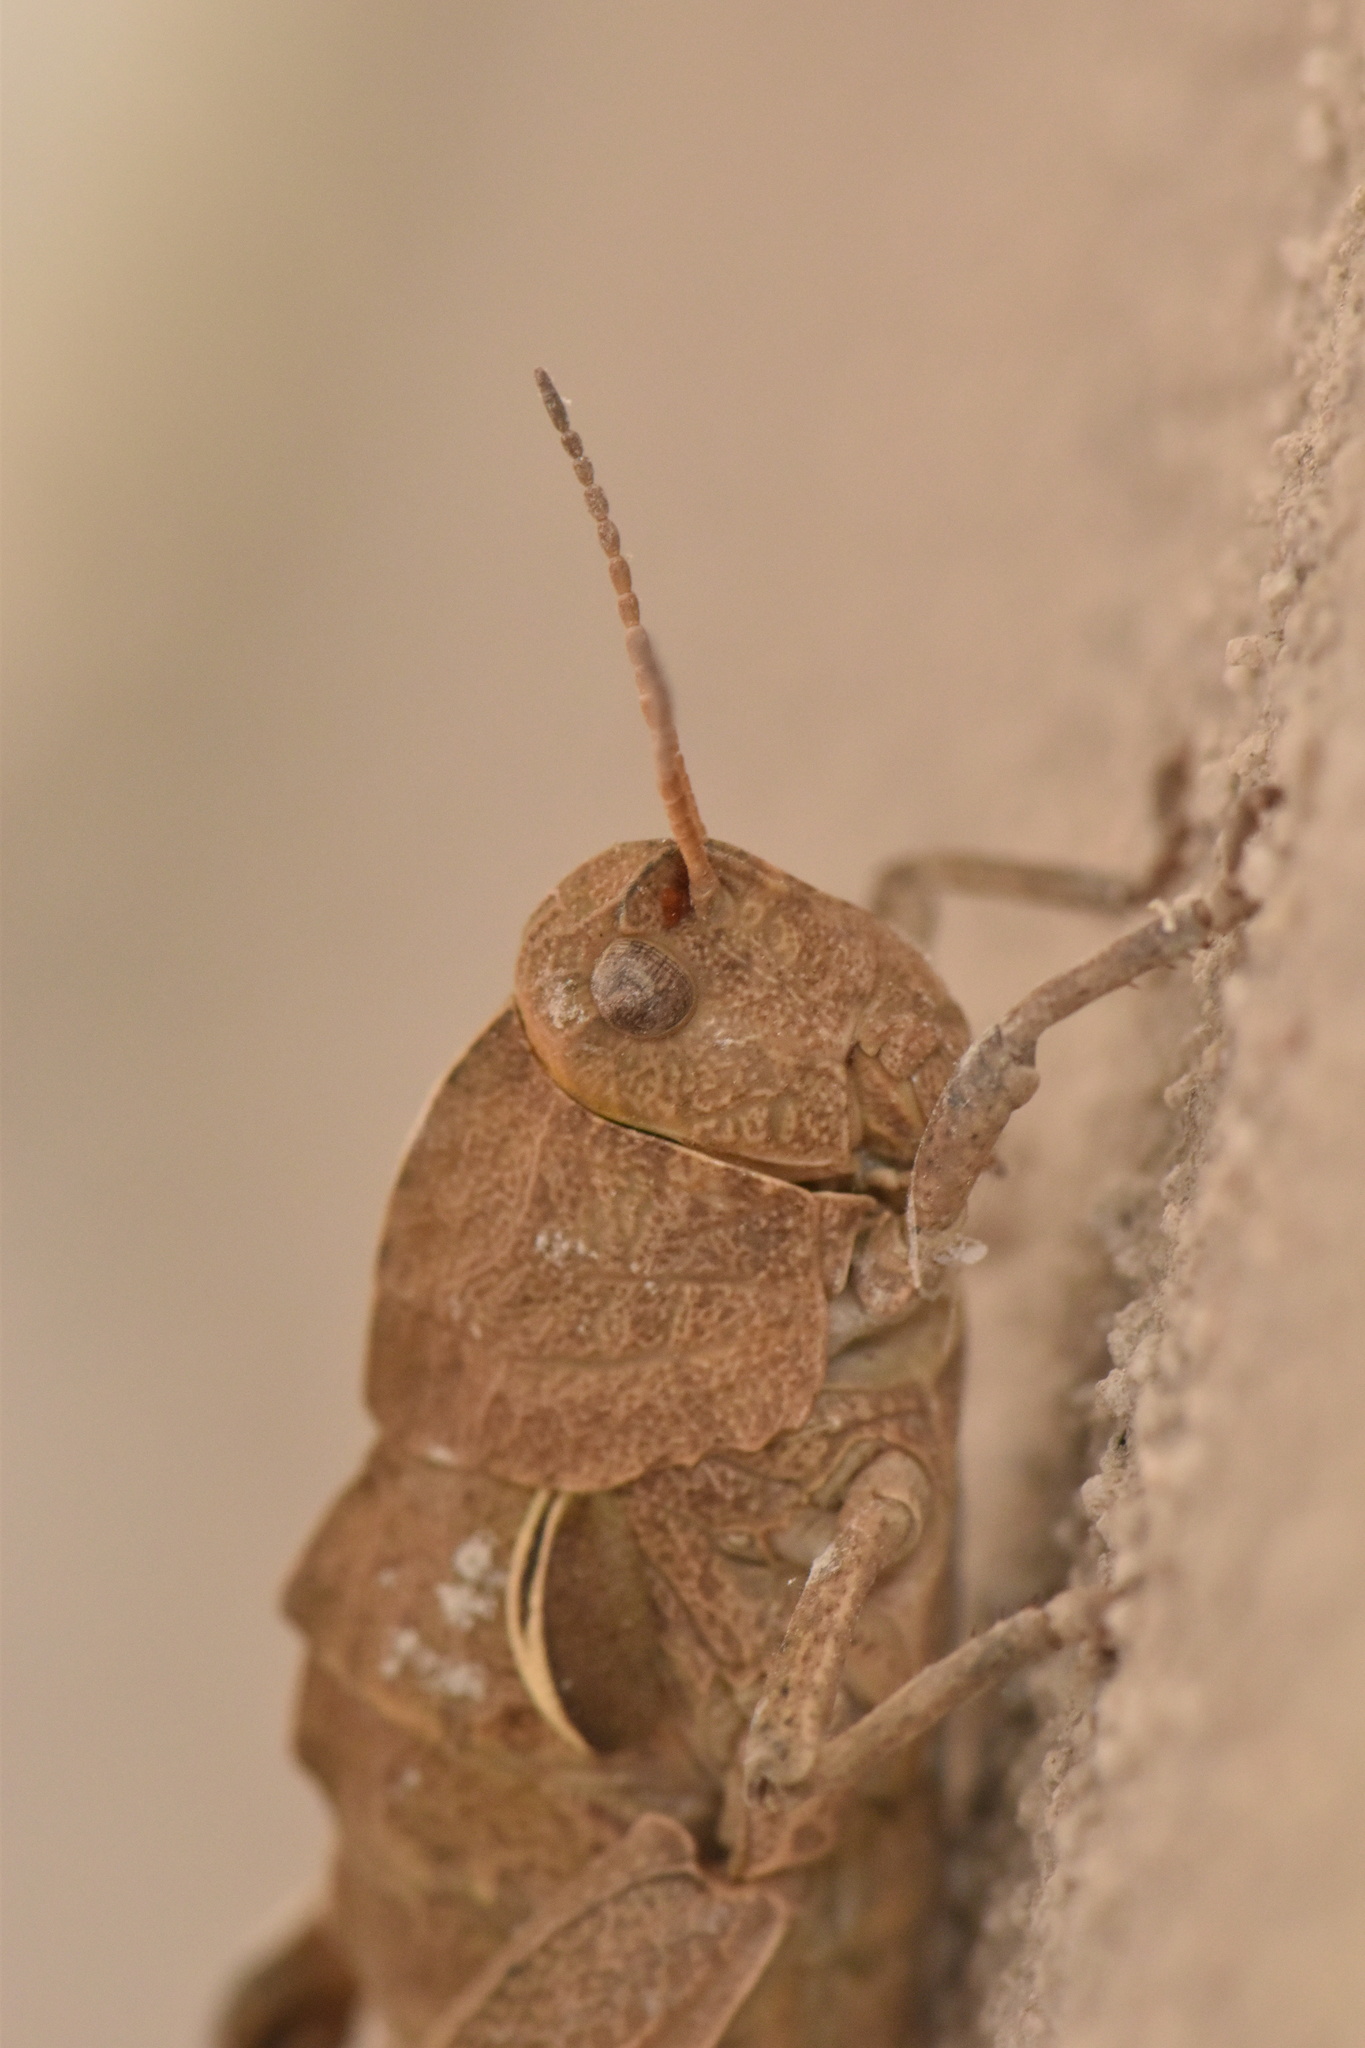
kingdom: Animalia
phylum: Arthropoda
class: Insecta
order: Orthoptera
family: Pamphagidae
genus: Euryparyphes
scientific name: Euryparyphes terrulentus
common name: Earthling stone grasshopper
